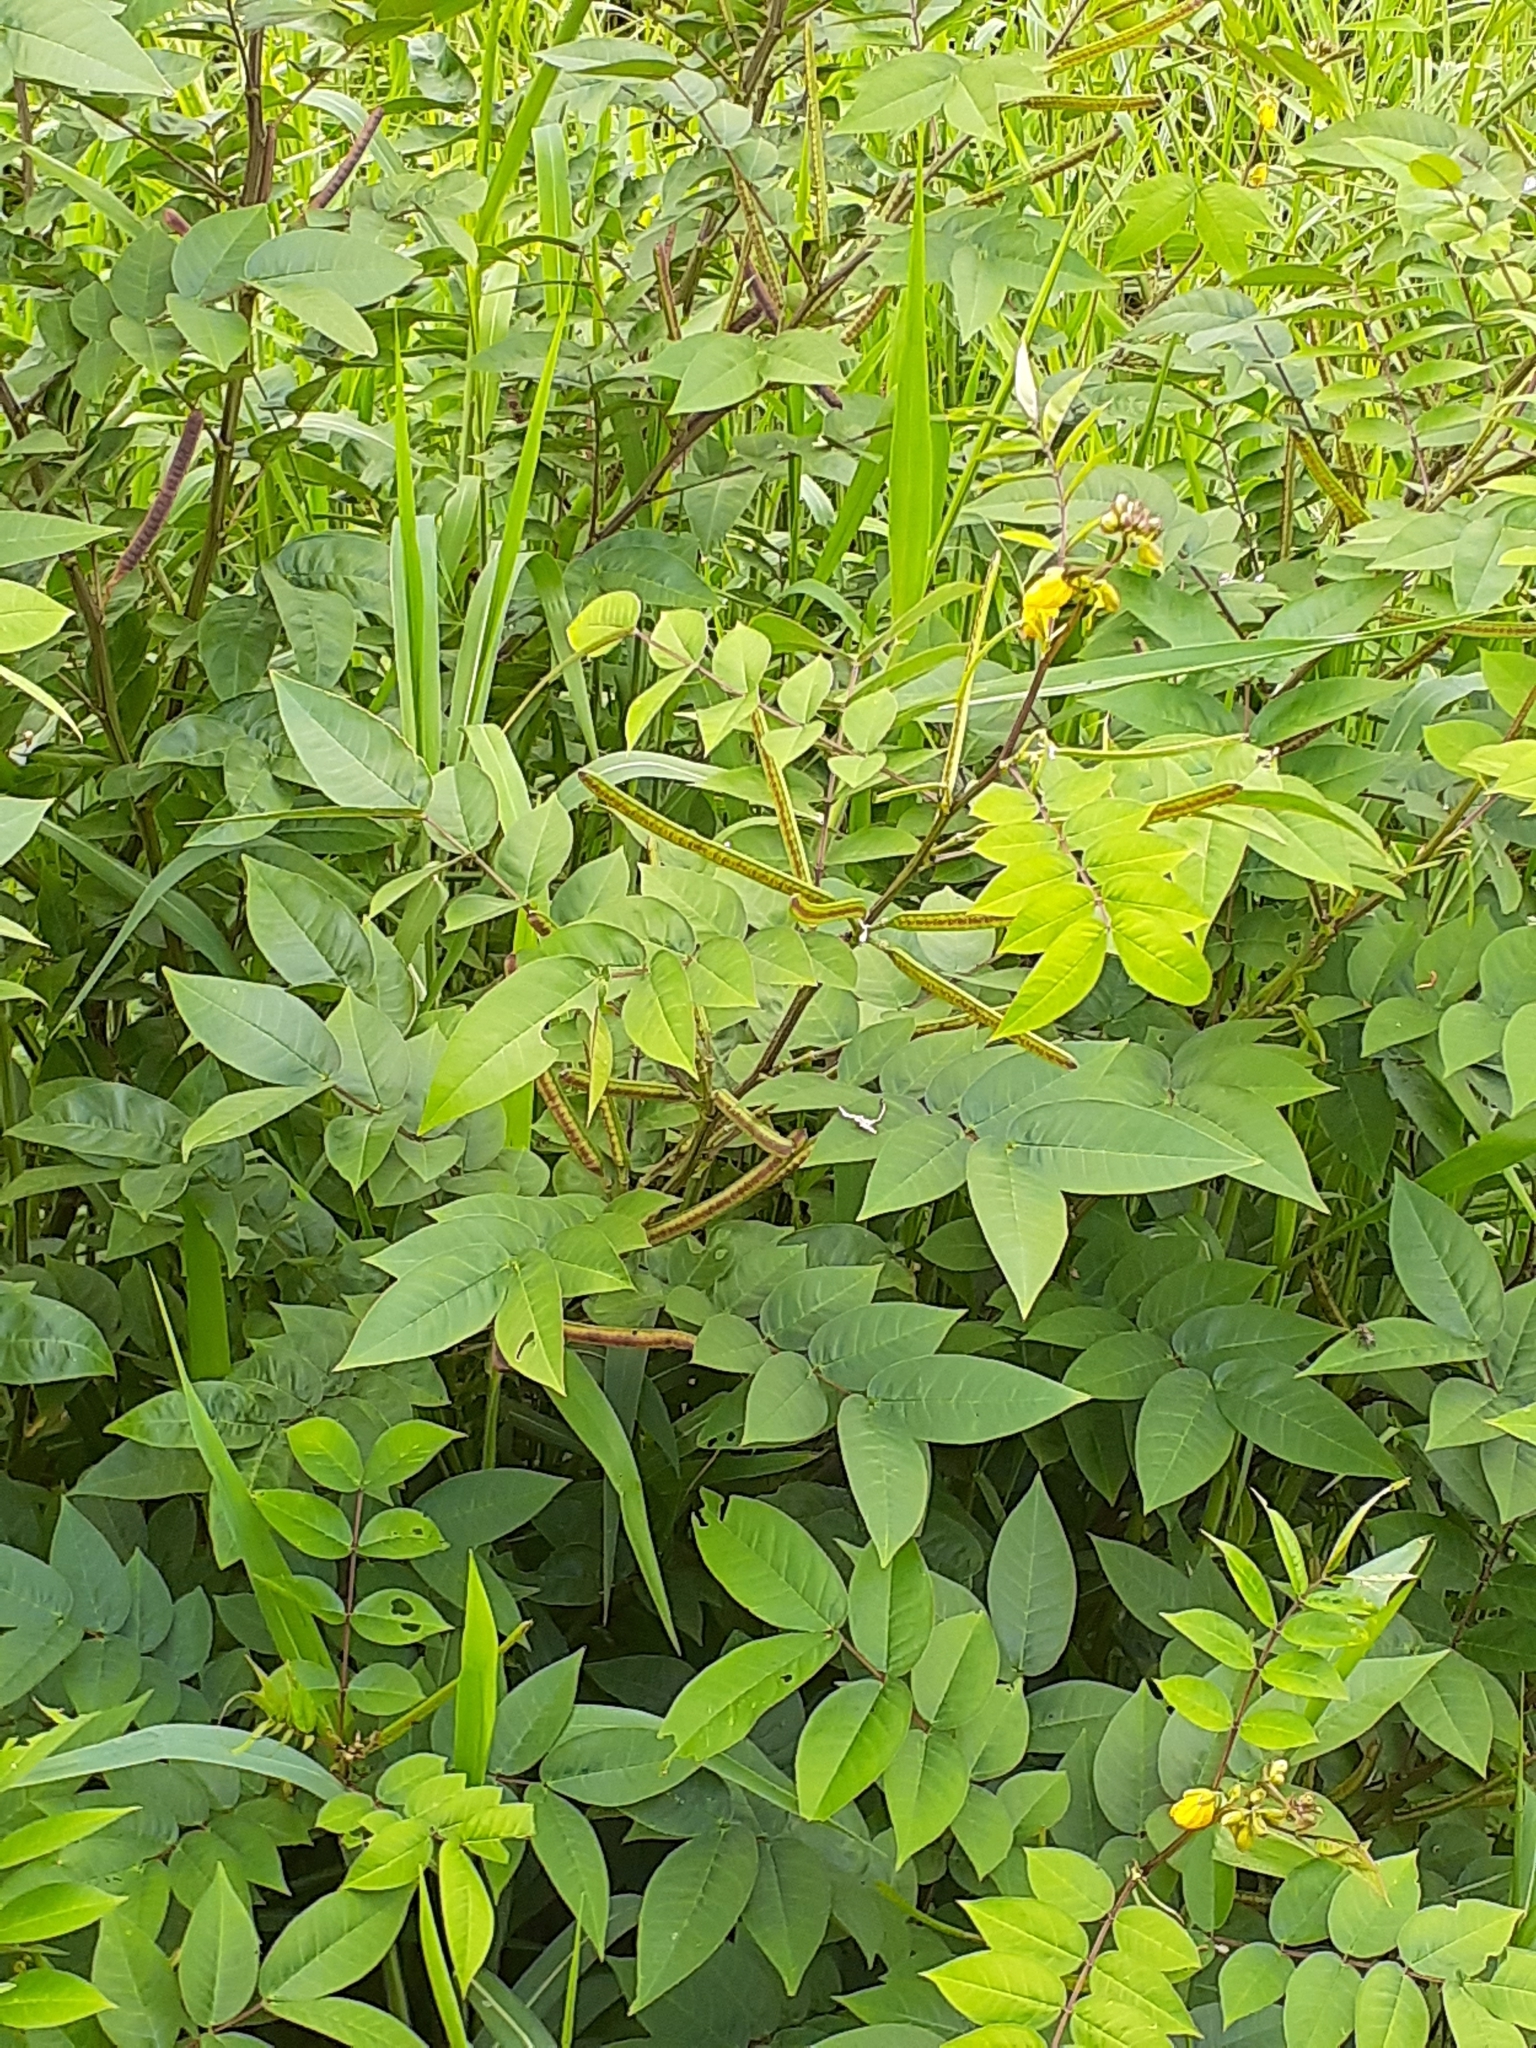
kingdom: Plantae
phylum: Tracheophyta
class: Magnoliopsida
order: Fabales
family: Fabaceae
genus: Senna
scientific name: Senna occidentalis
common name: Septicweed
